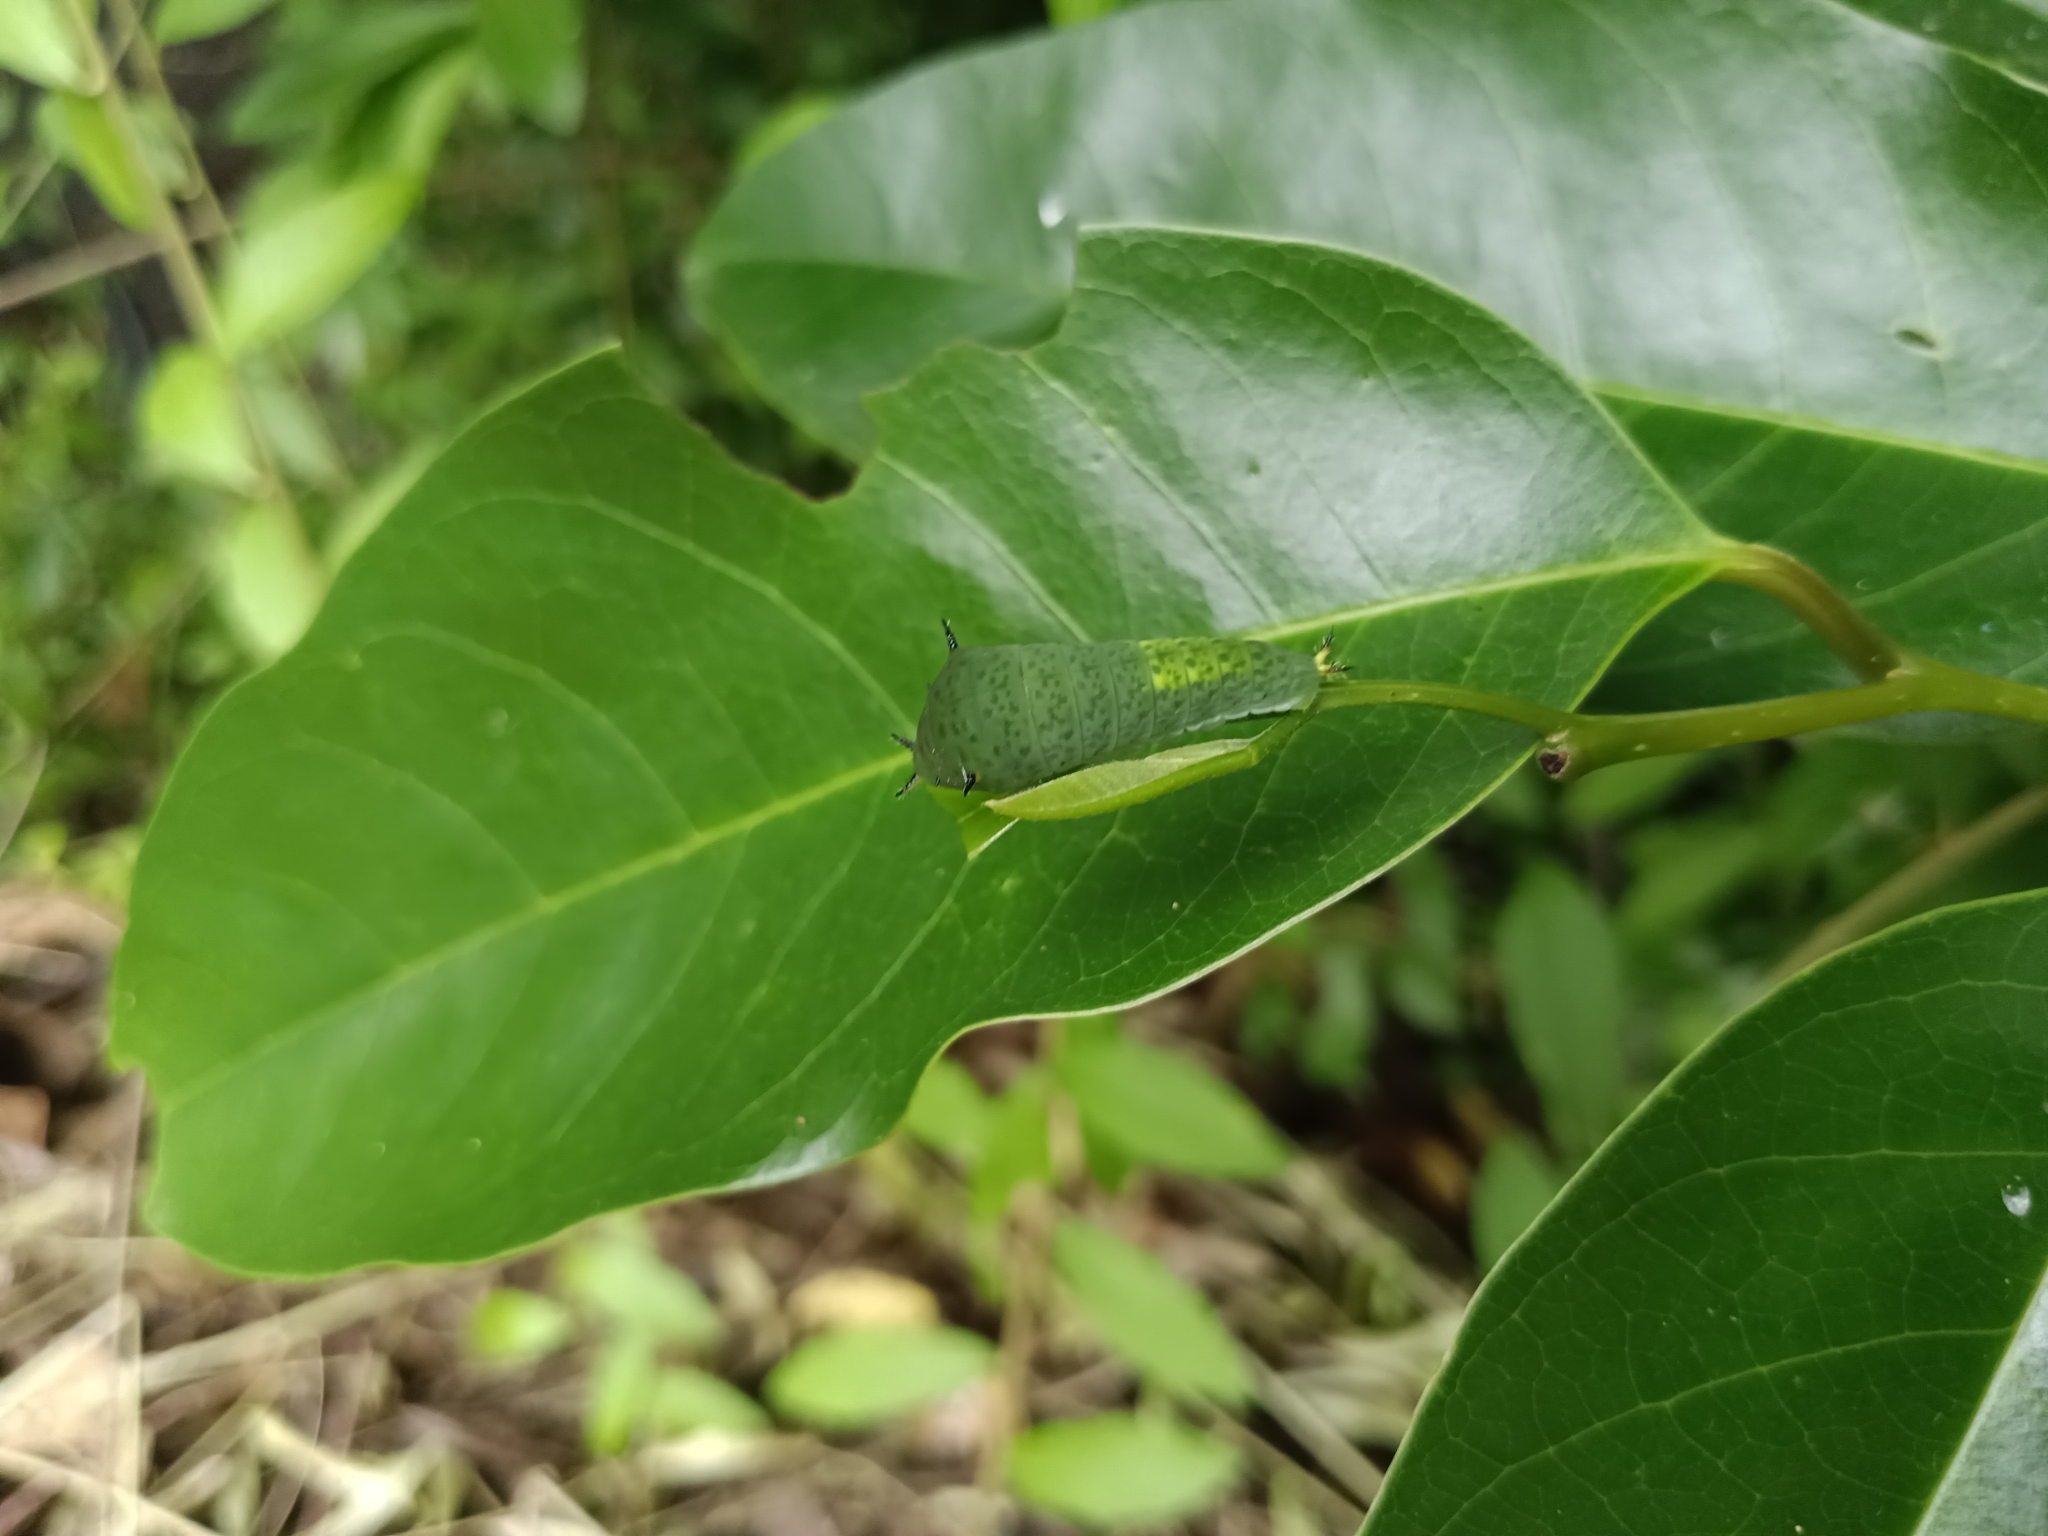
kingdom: Animalia
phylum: Arthropoda
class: Insecta
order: Lepidoptera
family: Papilionidae
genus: Graphium
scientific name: Graphium agamemnon
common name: Tailed jay
